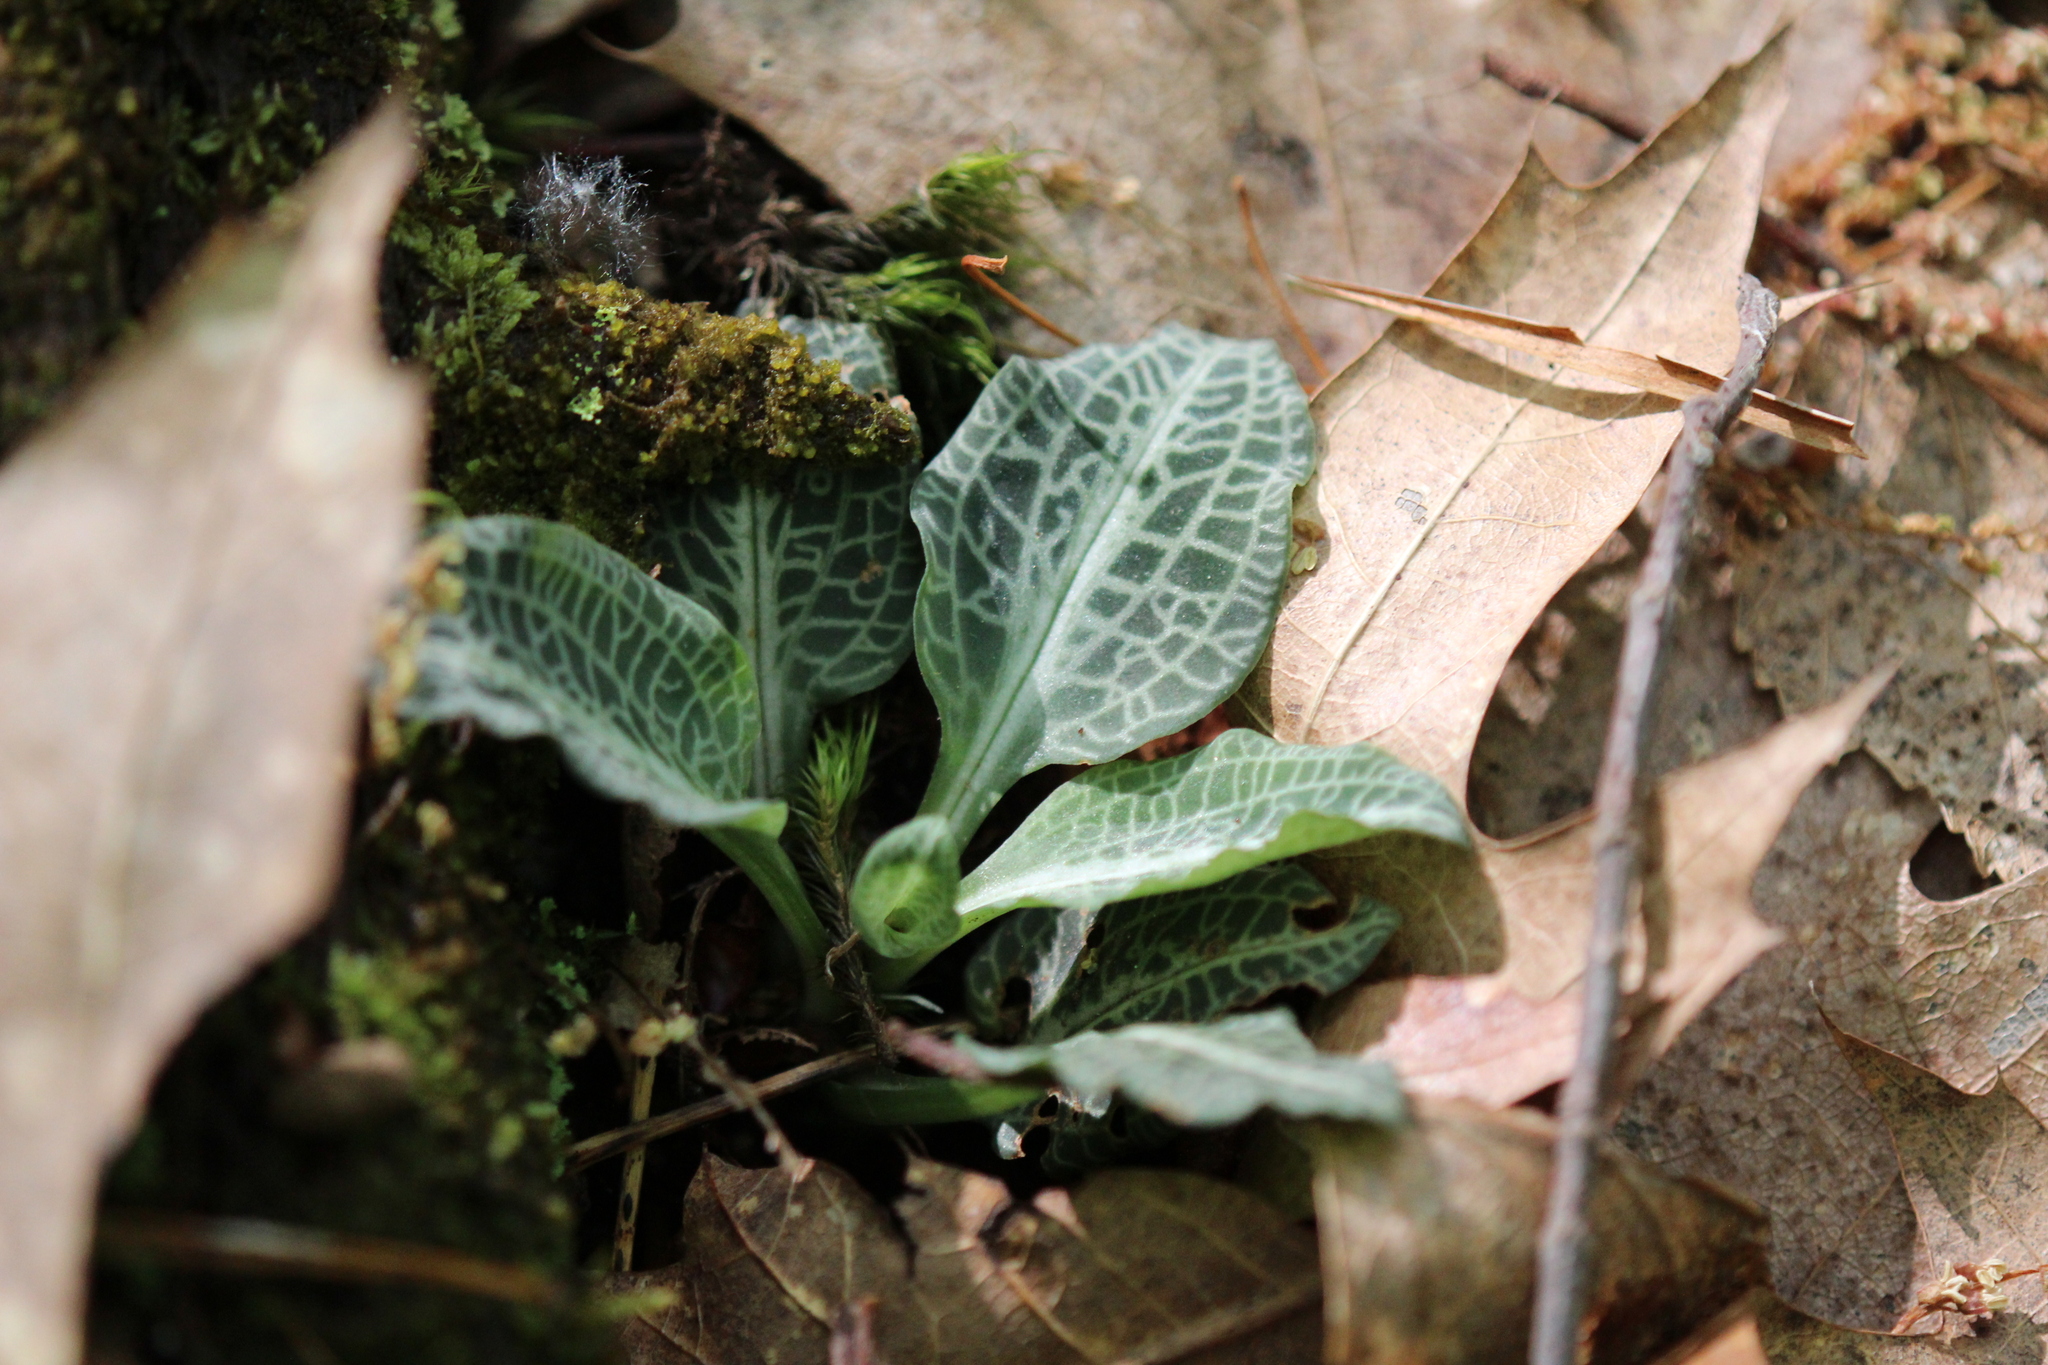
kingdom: Plantae
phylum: Tracheophyta
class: Liliopsida
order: Asparagales
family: Orchidaceae
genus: Goodyera
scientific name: Goodyera pubescens
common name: Downy rattlesnake-plantain
